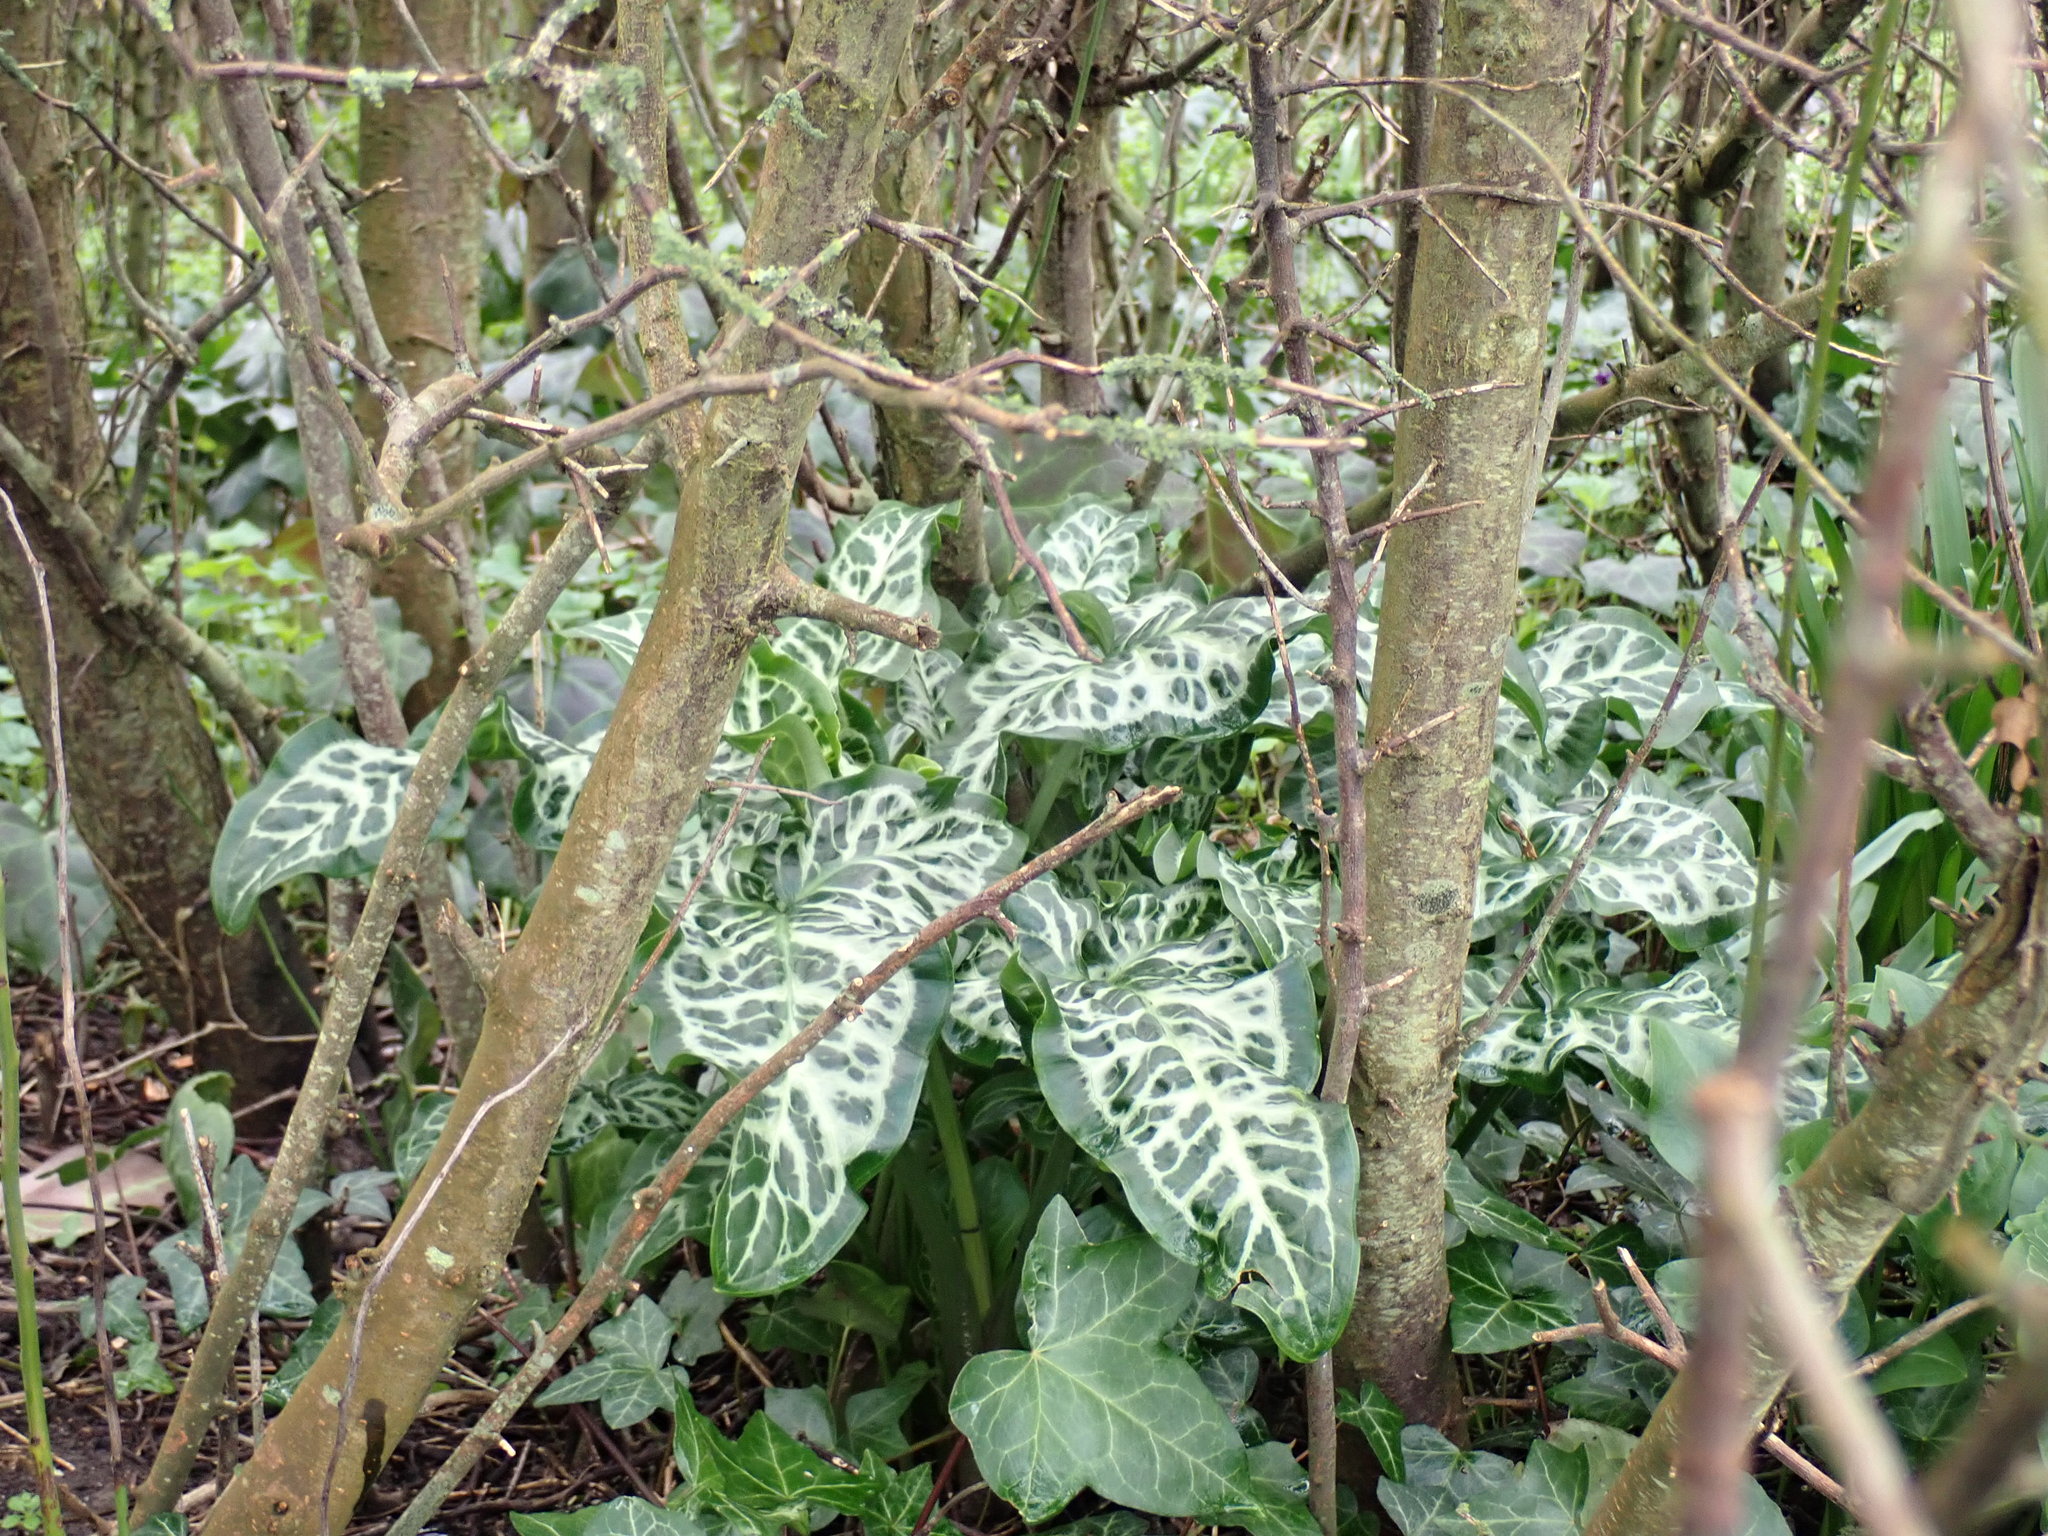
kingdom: Plantae
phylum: Tracheophyta
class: Liliopsida
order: Alismatales
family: Araceae
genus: Arum
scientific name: Arum italicum
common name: Italian lords-and-ladies
